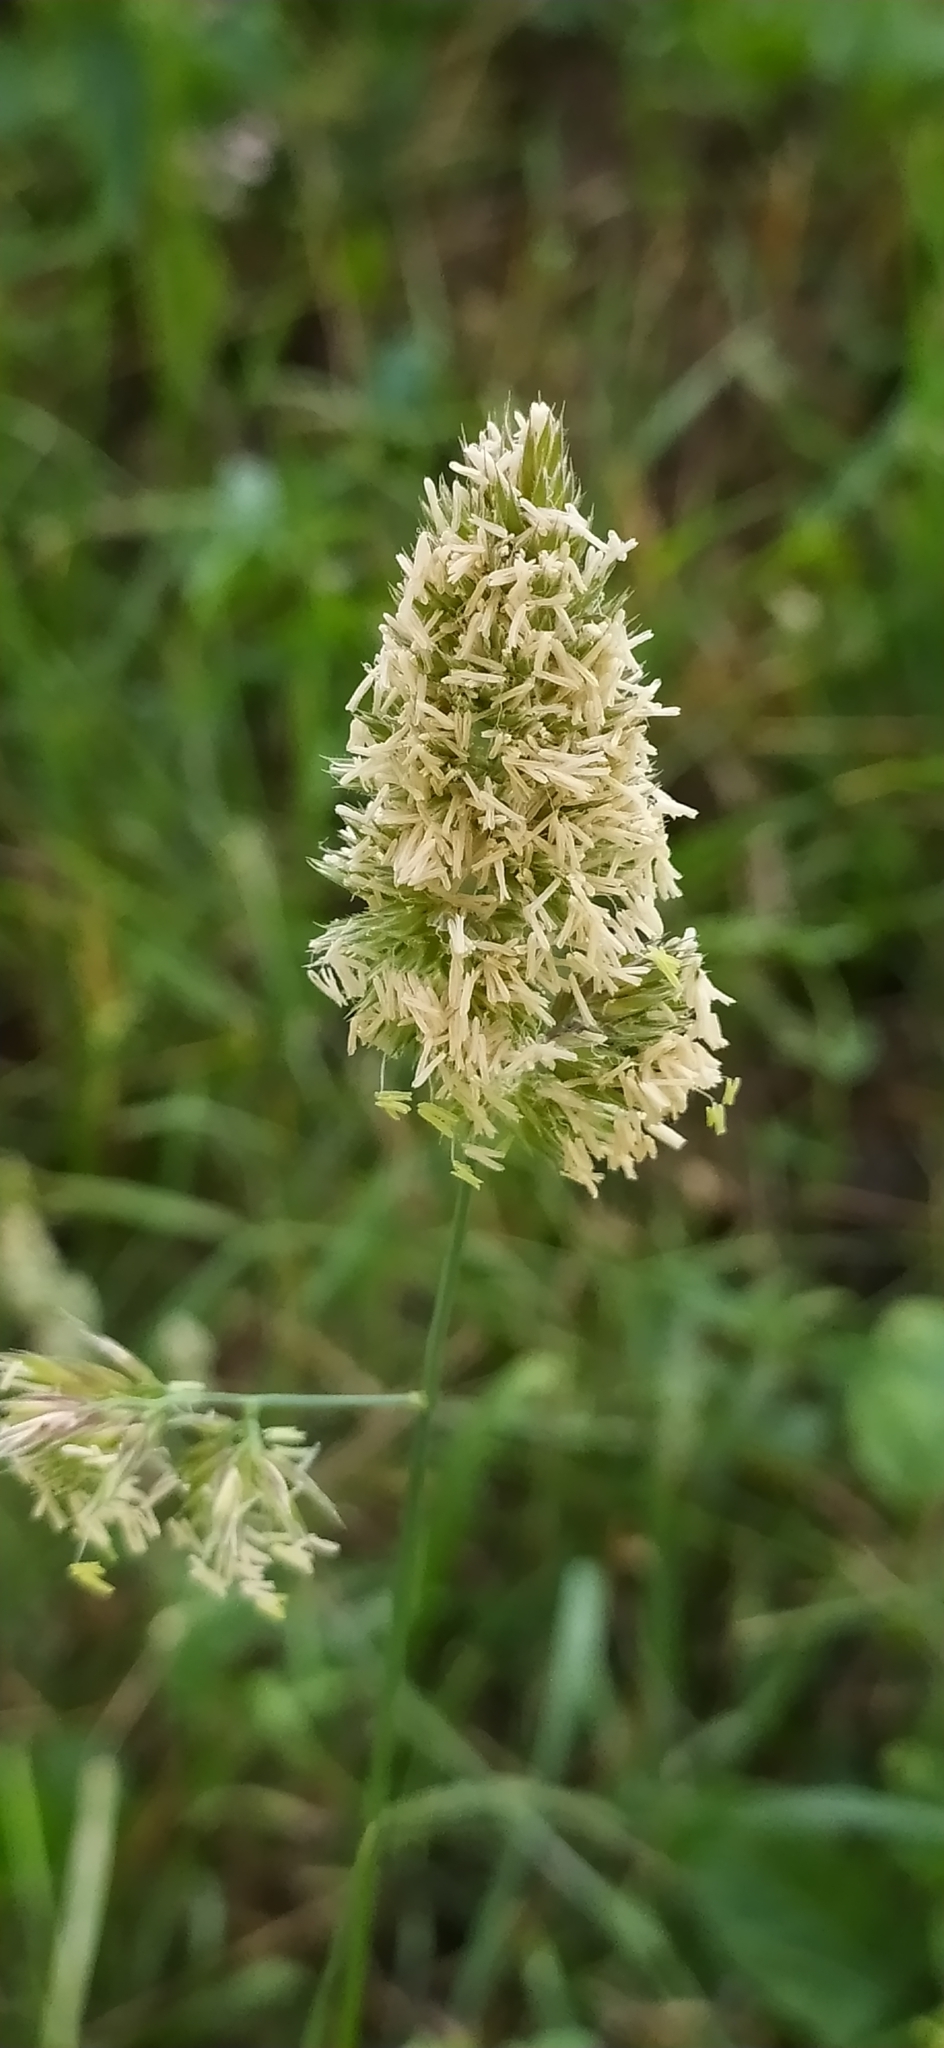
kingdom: Plantae
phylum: Tracheophyta
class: Liliopsida
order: Poales
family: Poaceae
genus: Dactylis
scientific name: Dactylis glomerata
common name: Orchardgrass
